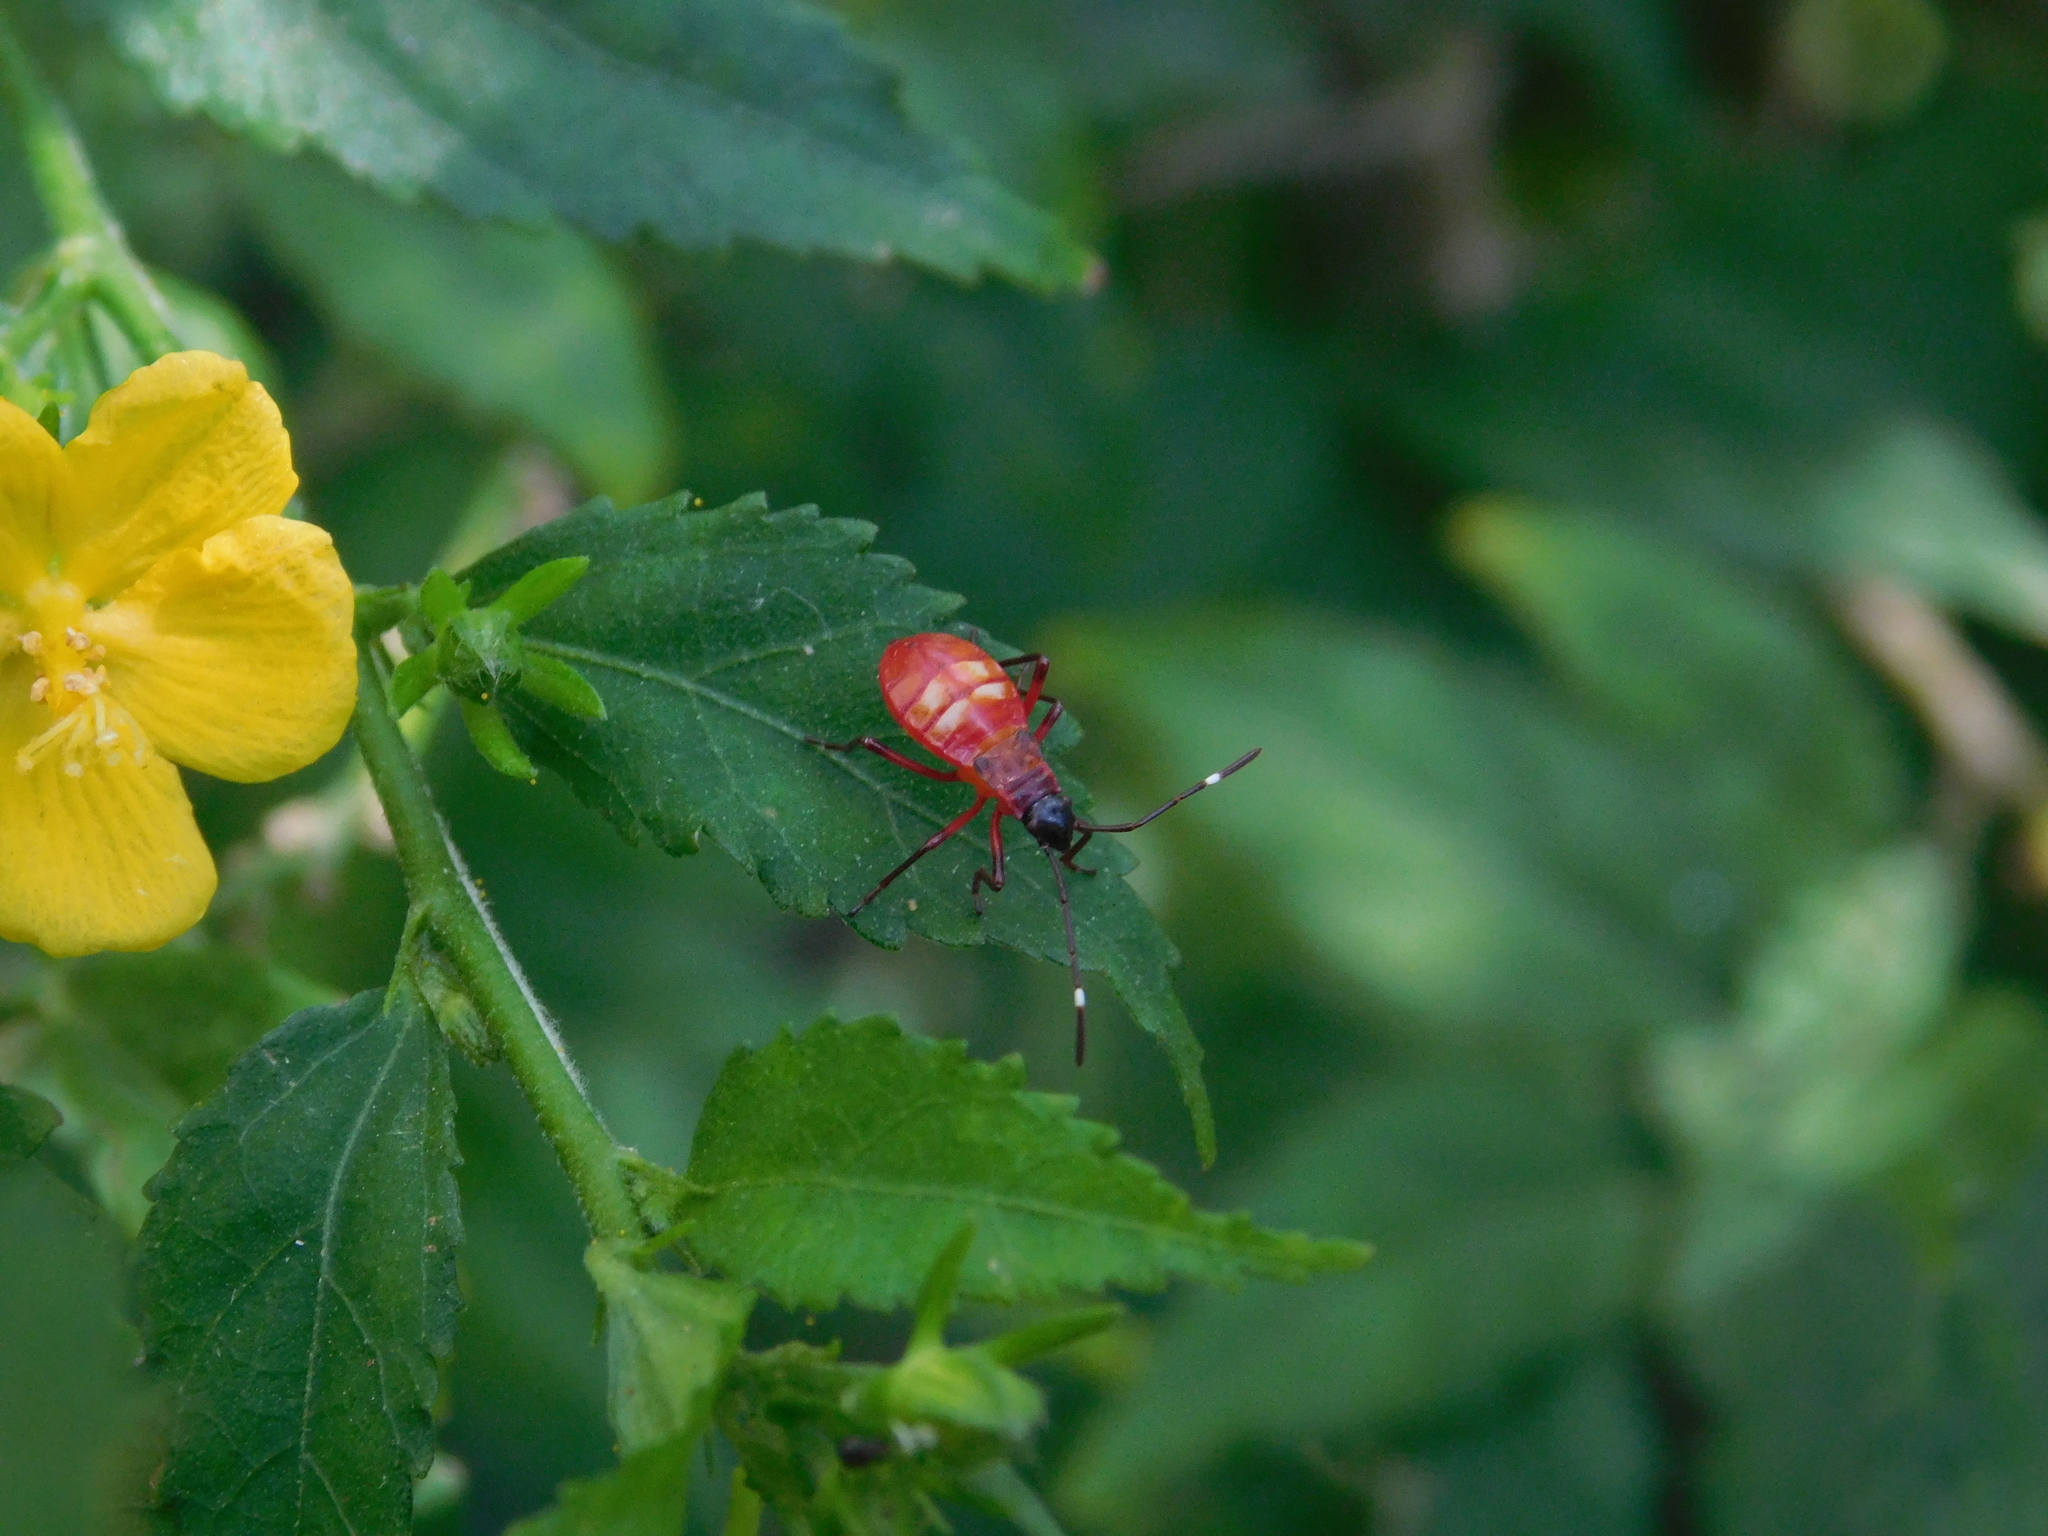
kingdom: Animalia
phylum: Arthropoda
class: Insecta
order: Hemiptera
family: Pyrrhocoridae
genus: Dysdercus
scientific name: Dysdercus albofasciatus
